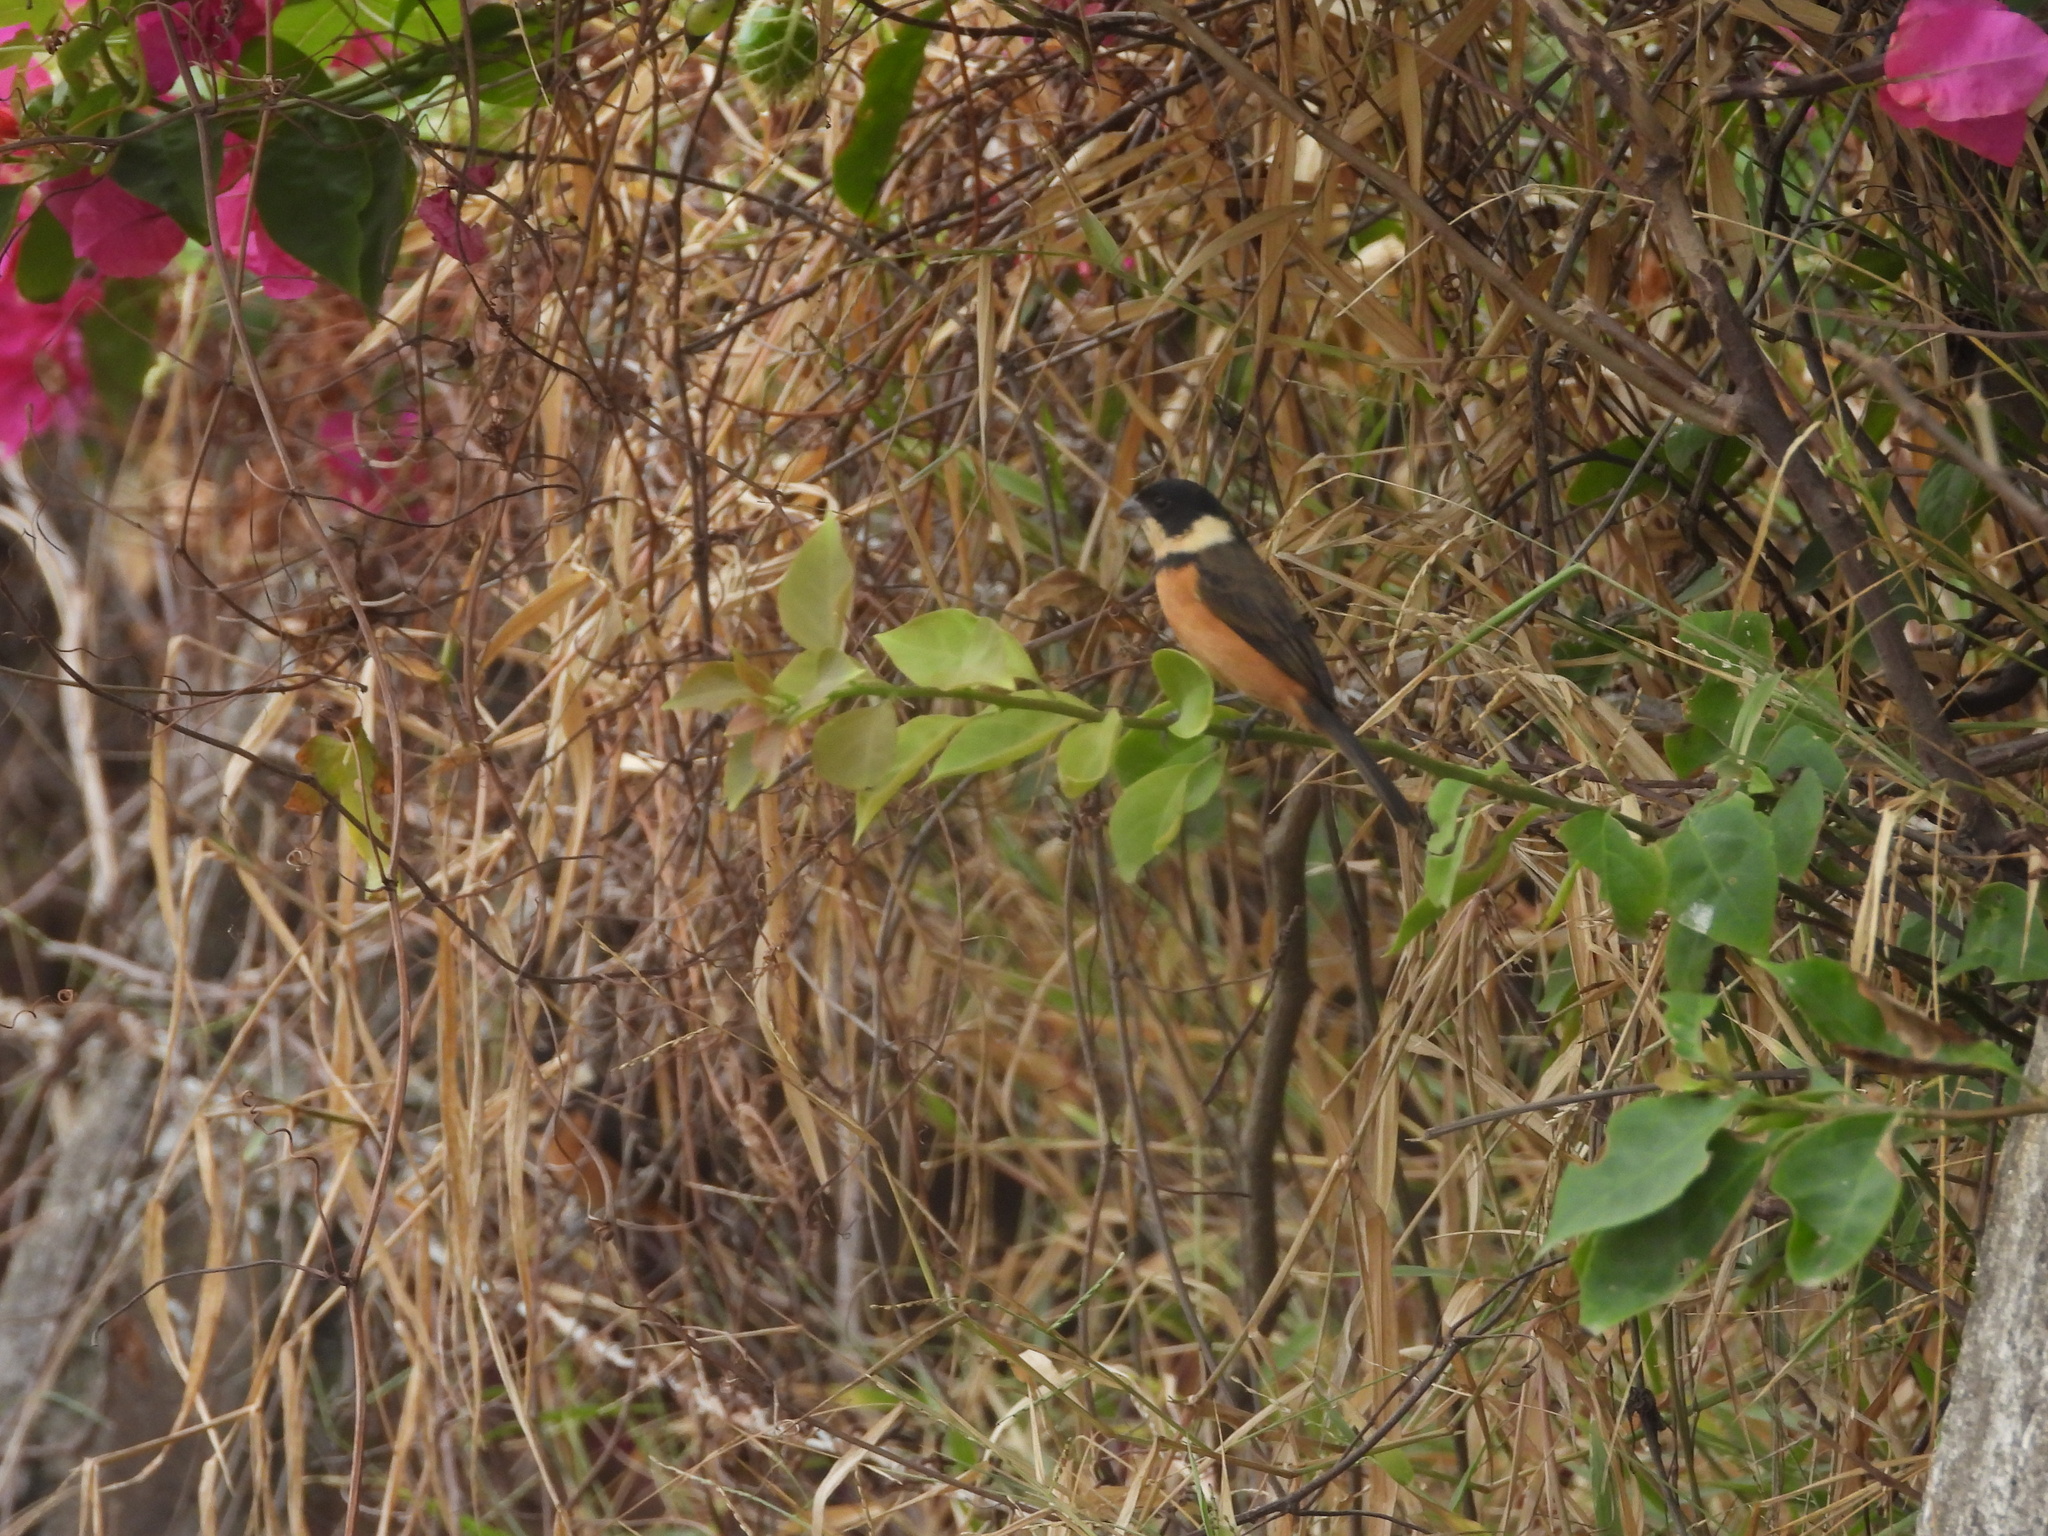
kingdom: Animalia
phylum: Chordata
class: Aves
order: Passeriformes
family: Thraupidae
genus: Sporophila
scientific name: Sporophila torqueola
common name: White-collared seedeater
